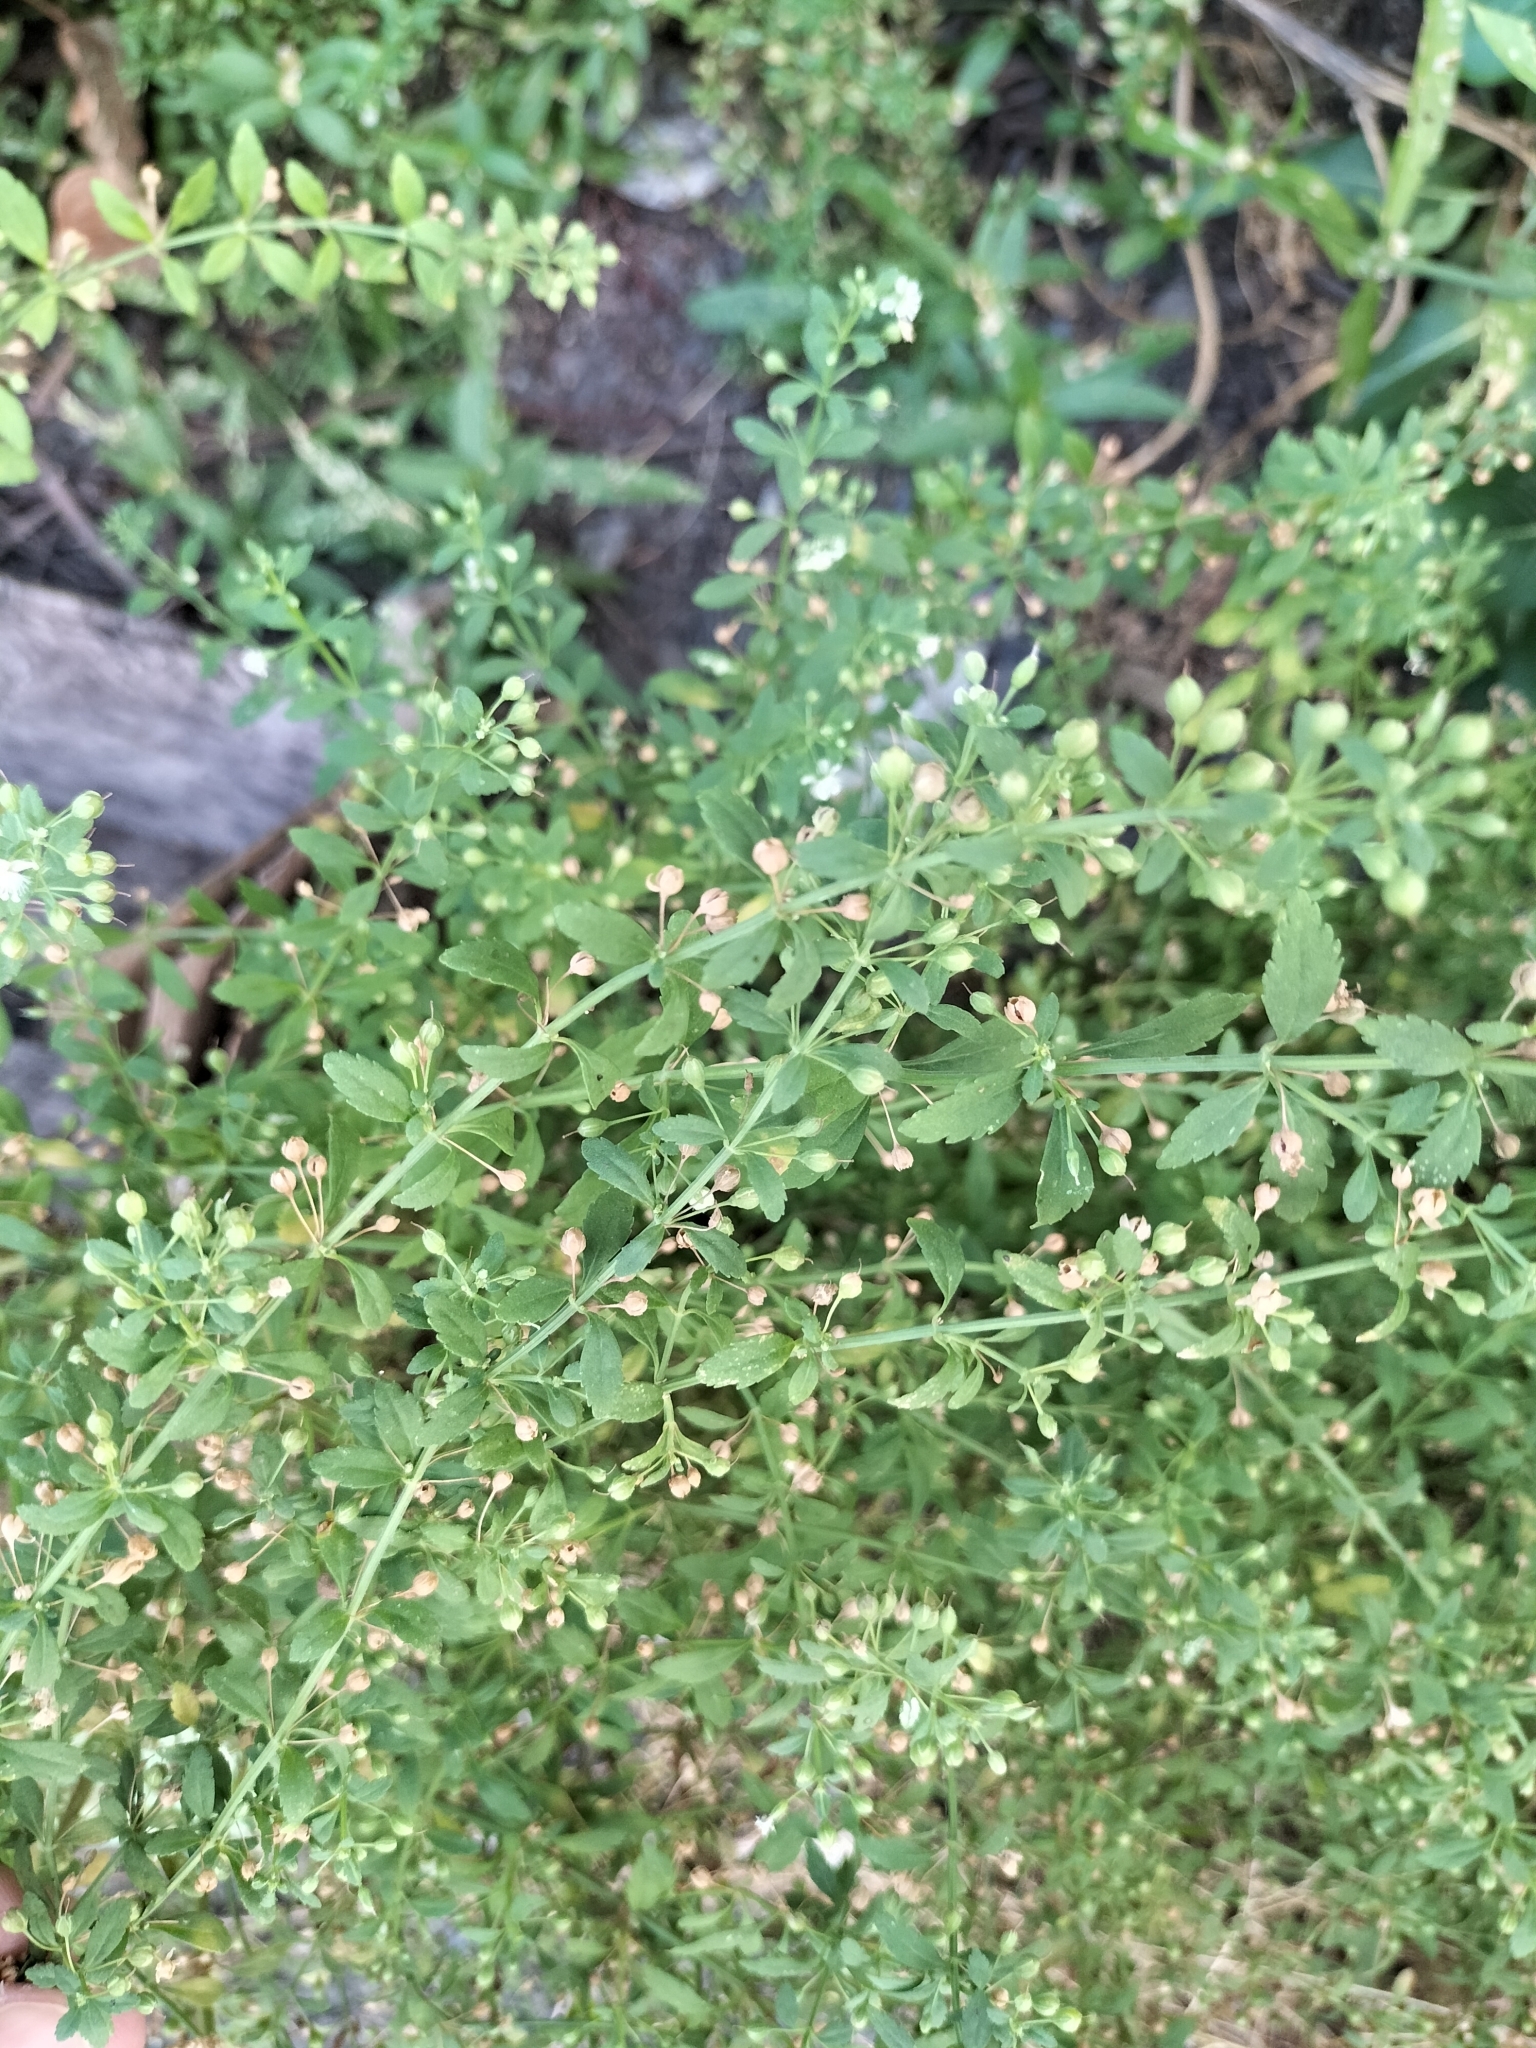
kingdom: Plantae
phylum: Tracheophyta
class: Magnoliopsida
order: Lamiales
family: Plantaginaceae
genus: Scoparia
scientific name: Scoparia dulcis
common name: Scoparia-weed
